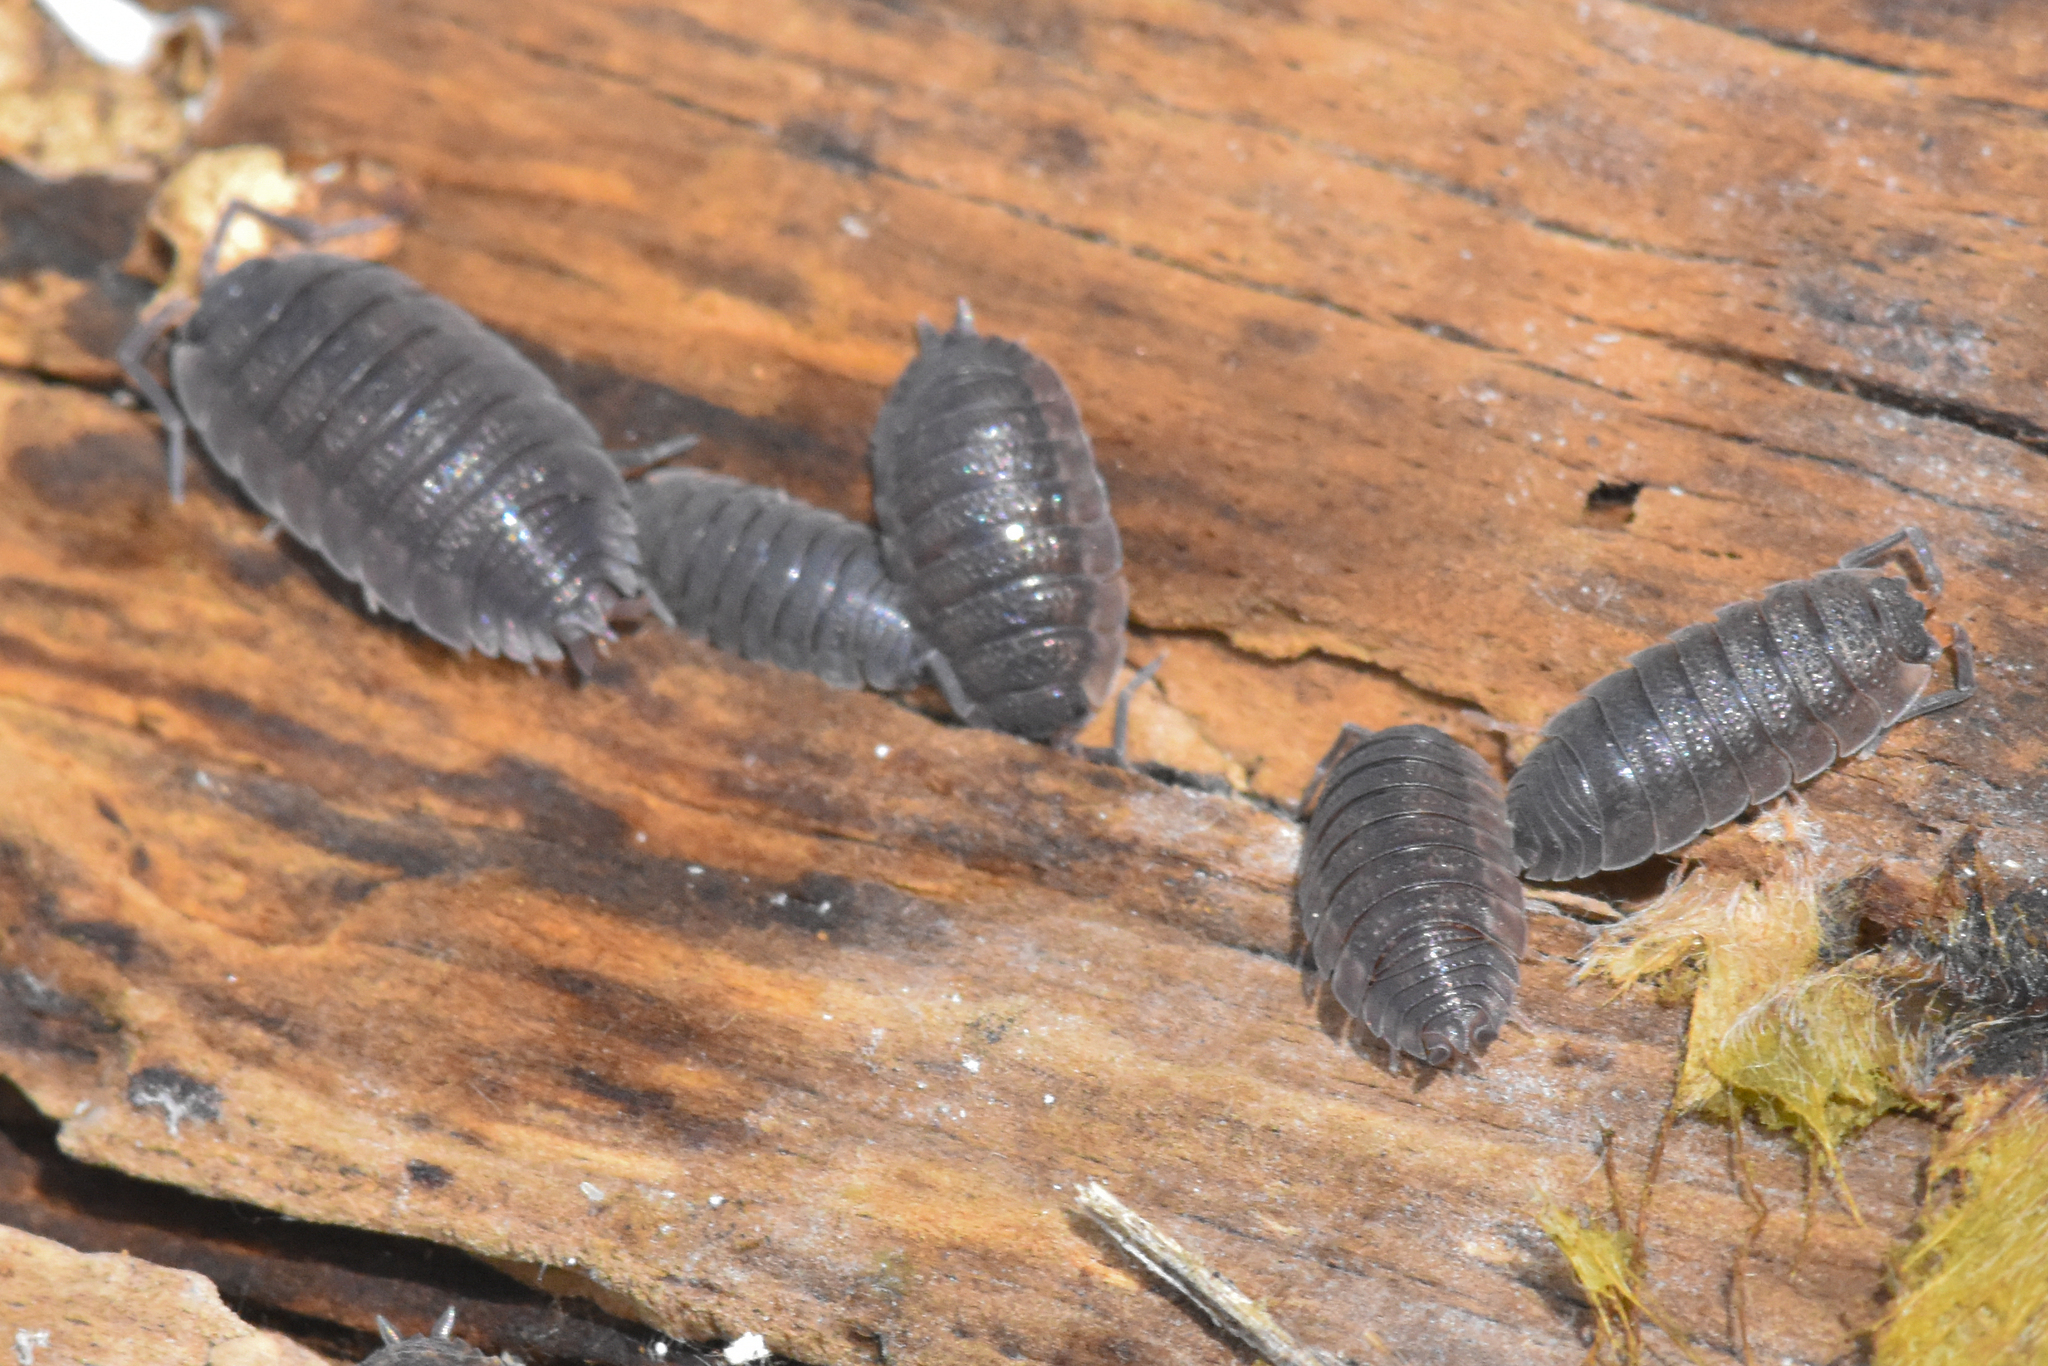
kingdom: Animalia
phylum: Arthropoda
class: Malacostraca
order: Isopoda
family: Porcellionidae
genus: Porcellio
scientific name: Porcellio scaber
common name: Common rough woodlouse
